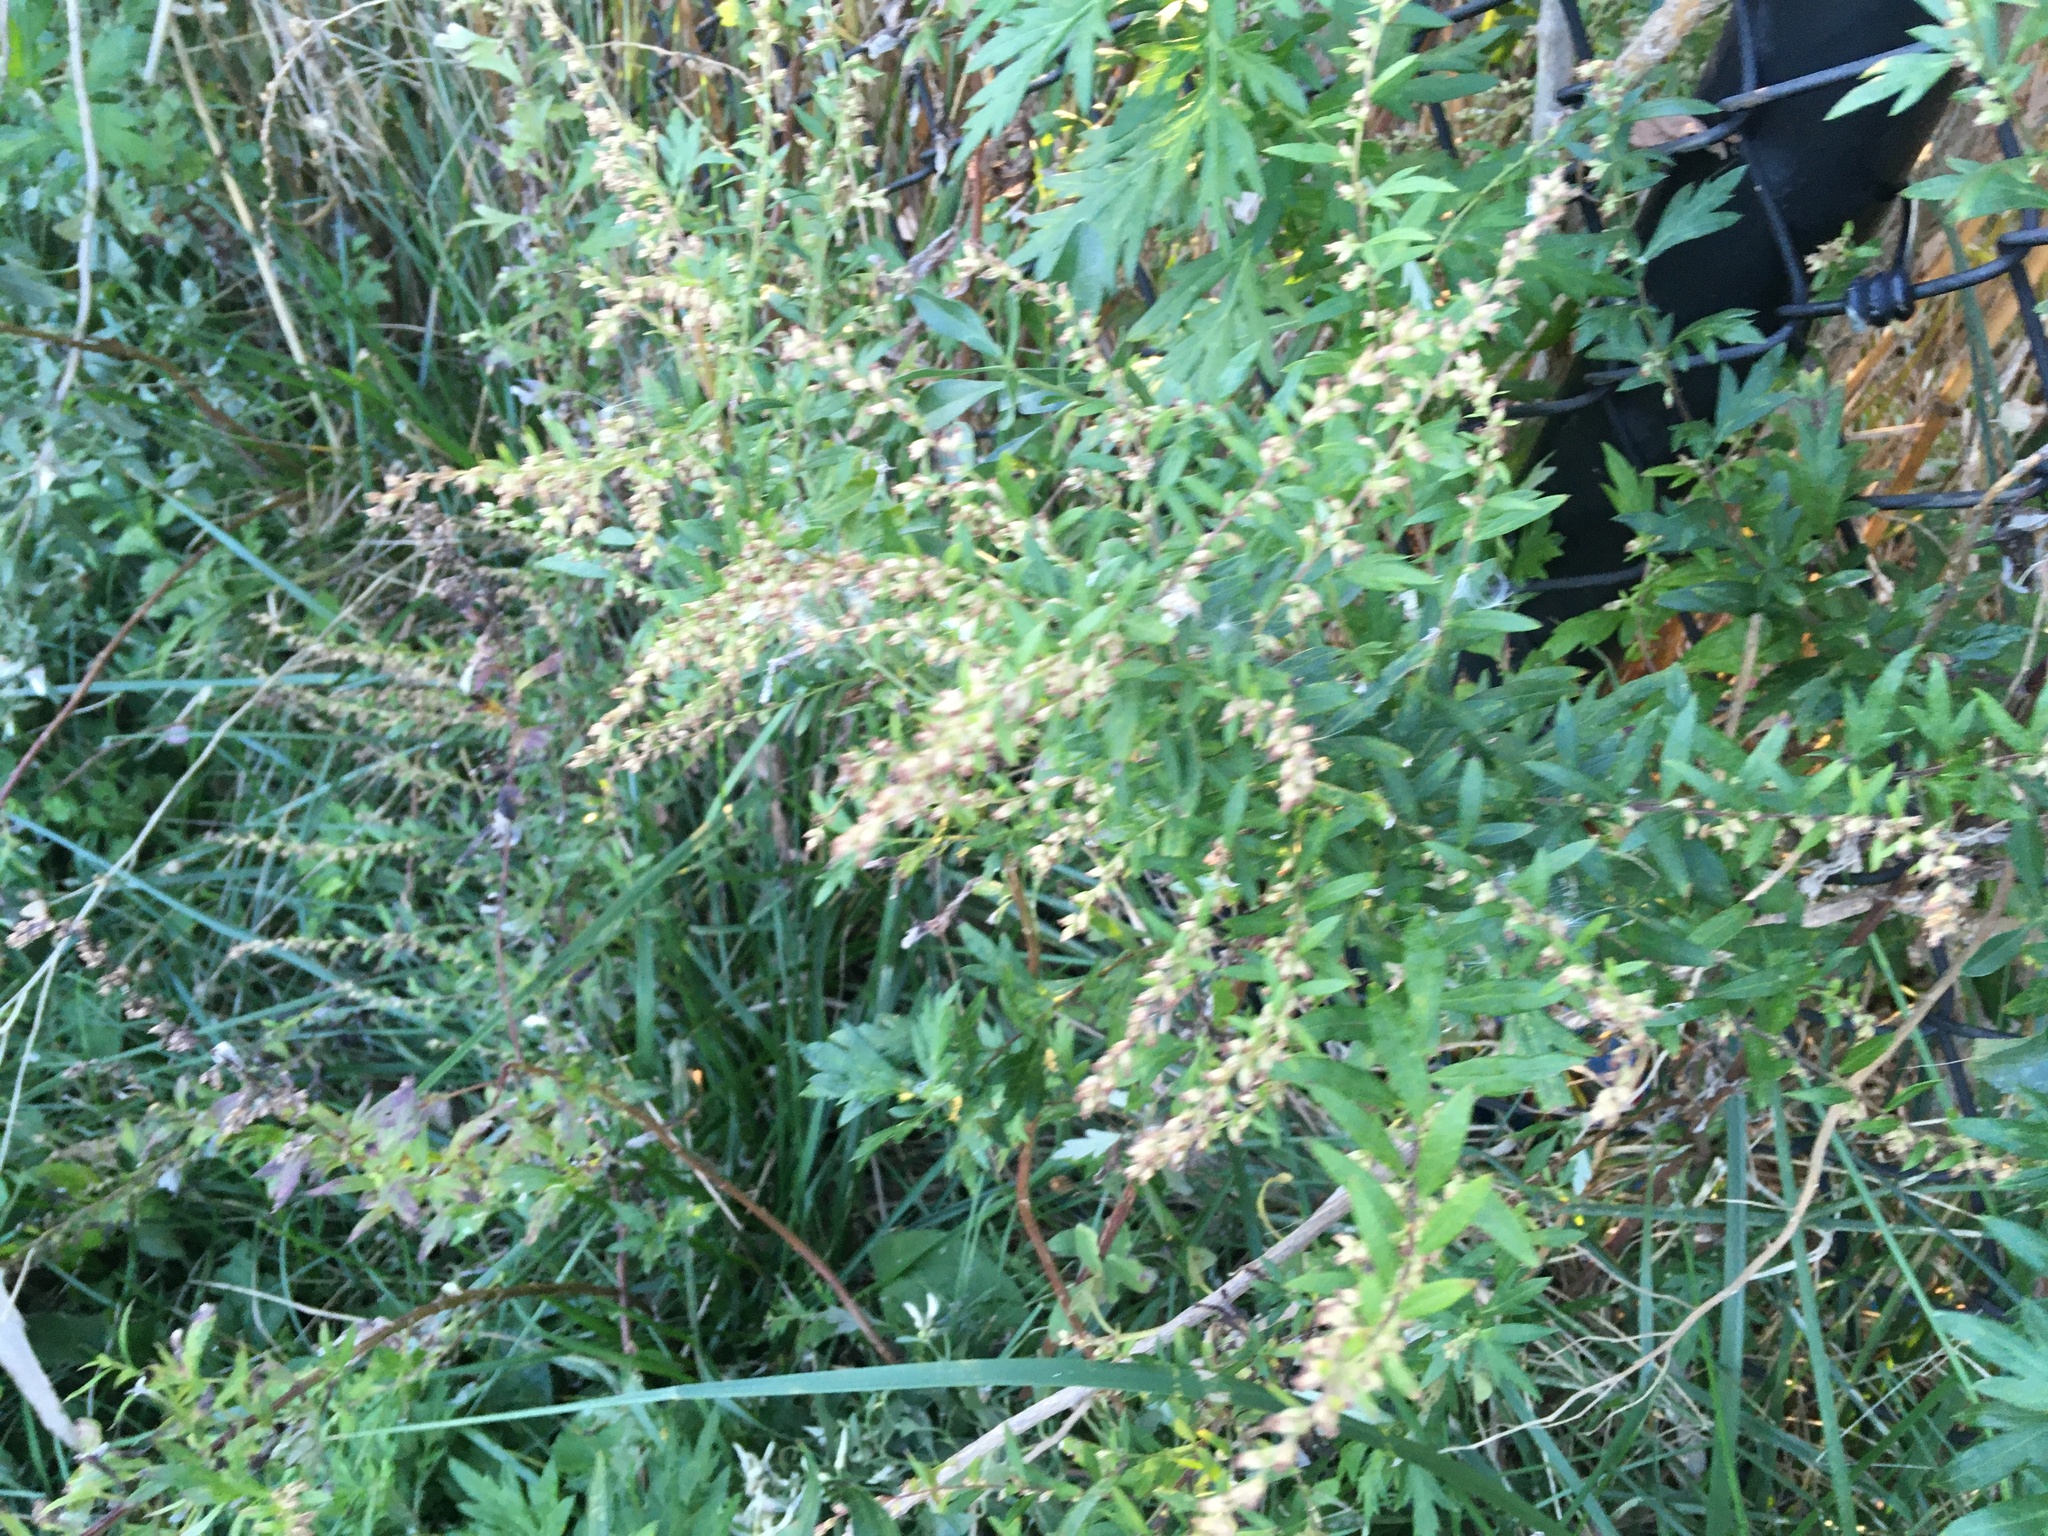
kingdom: Plantae
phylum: Tracheophyta
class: Magnoliopsida
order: Asterales
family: Asteraceae
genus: Artemisia
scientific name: Artemisia vulgaris
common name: Mugwort
